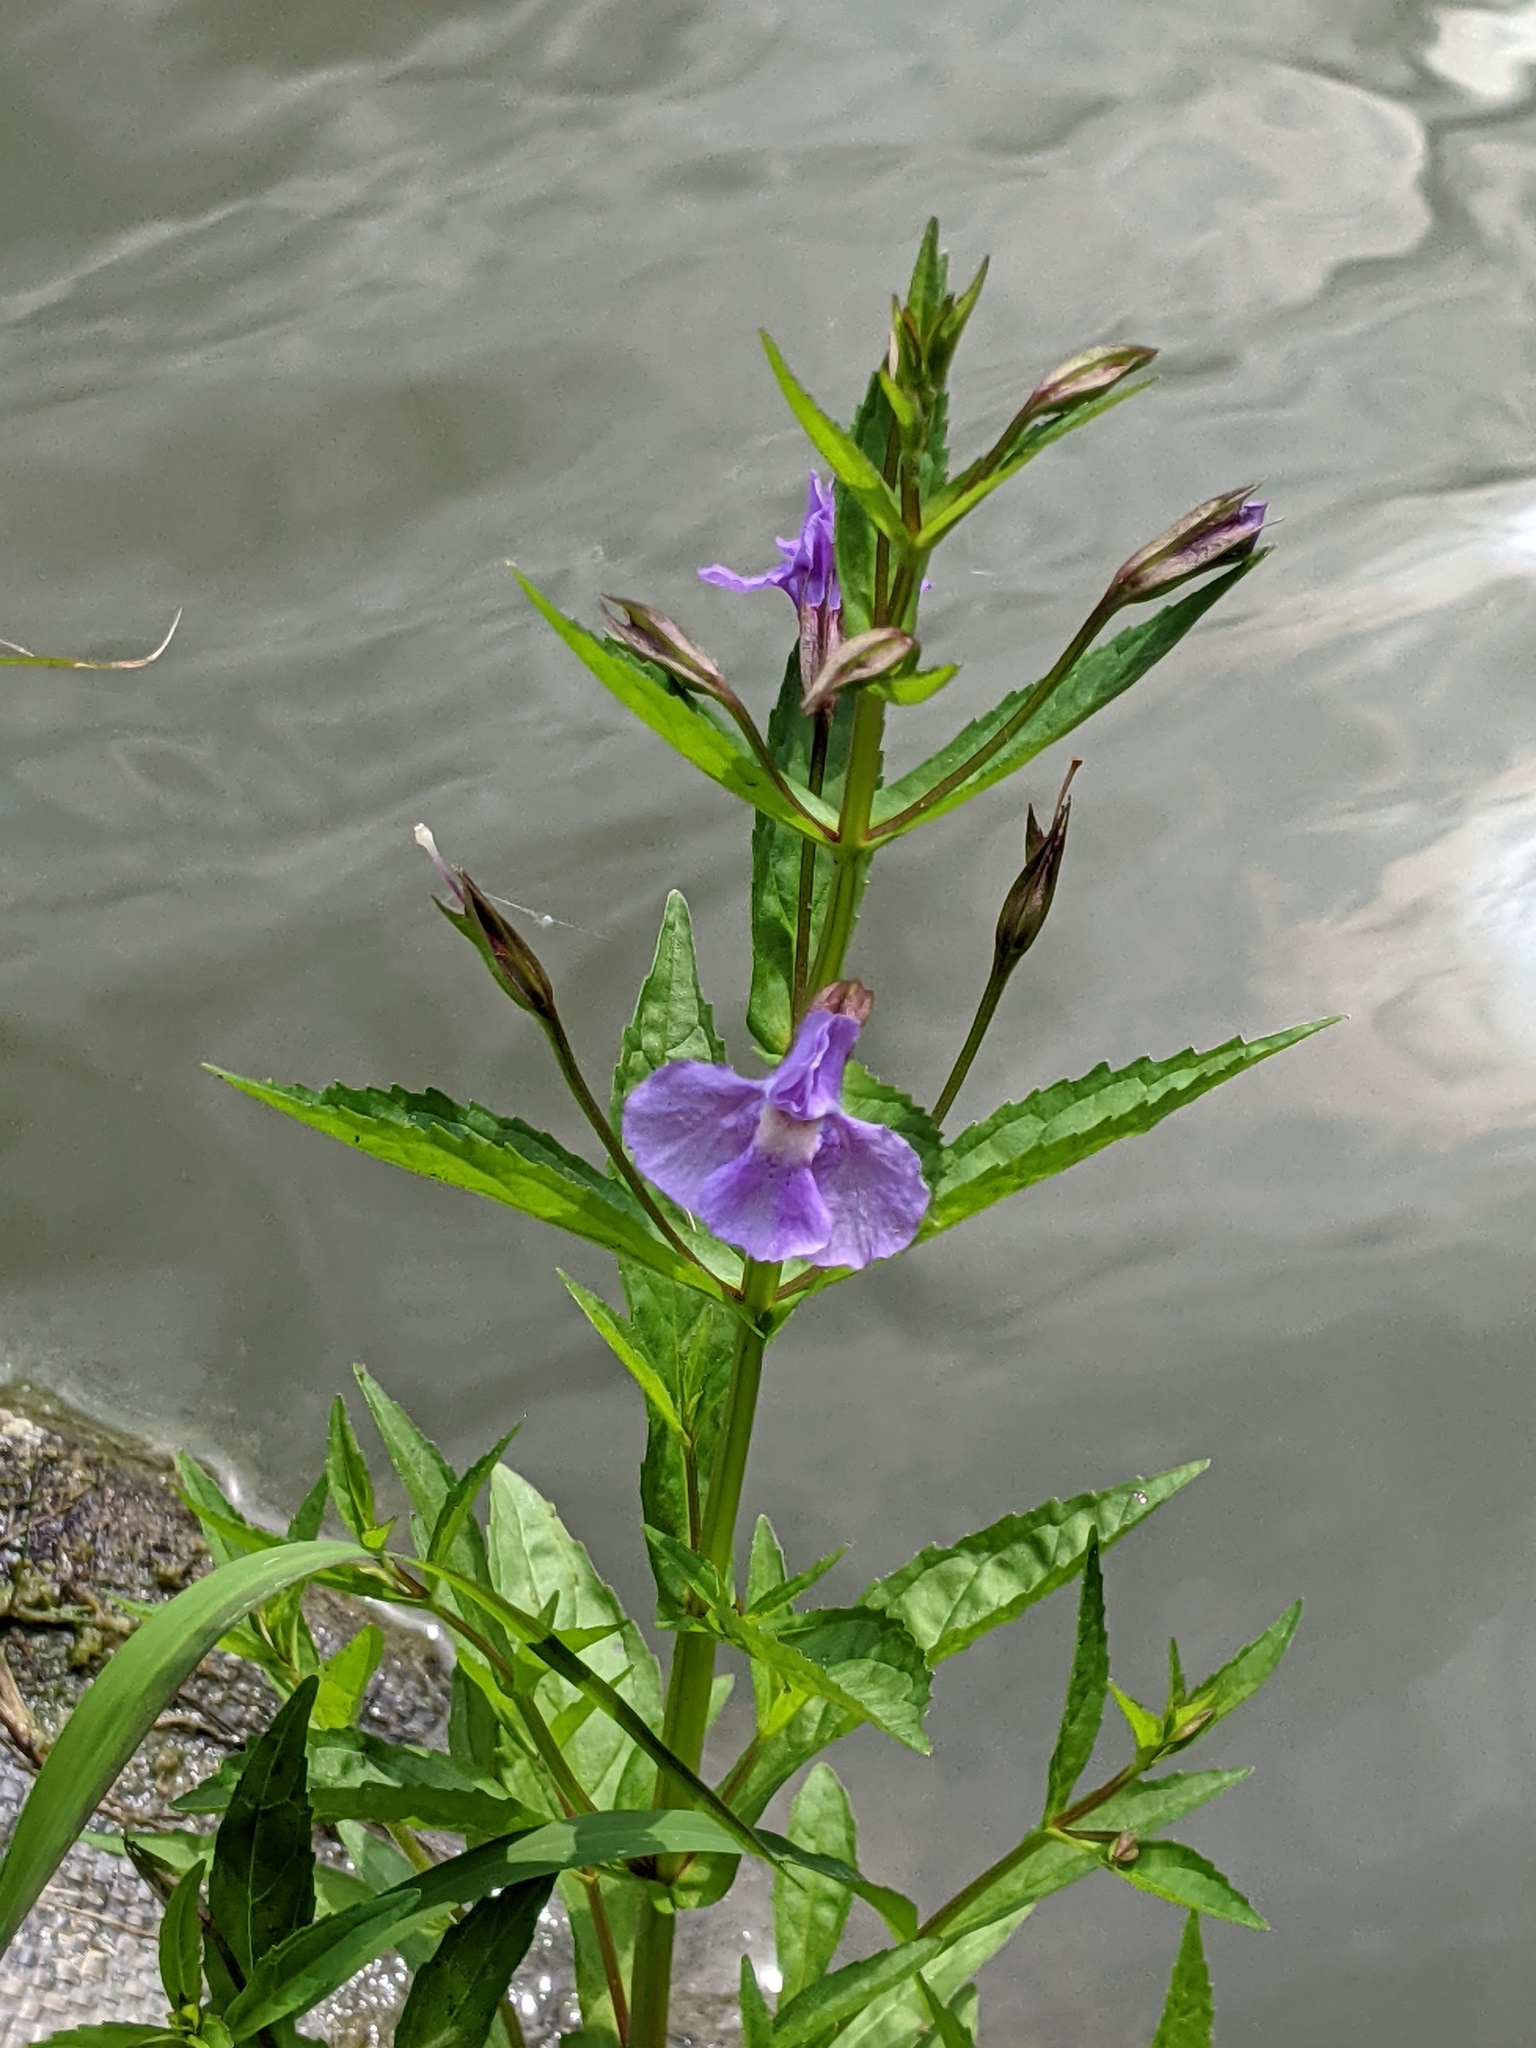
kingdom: Plantae
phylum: Tracheophyta
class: Magnoliopsida
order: Lamiales
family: Phrymaceae
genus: Mimulus
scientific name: Mimulus ringens
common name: Allegheny monkeyflower
